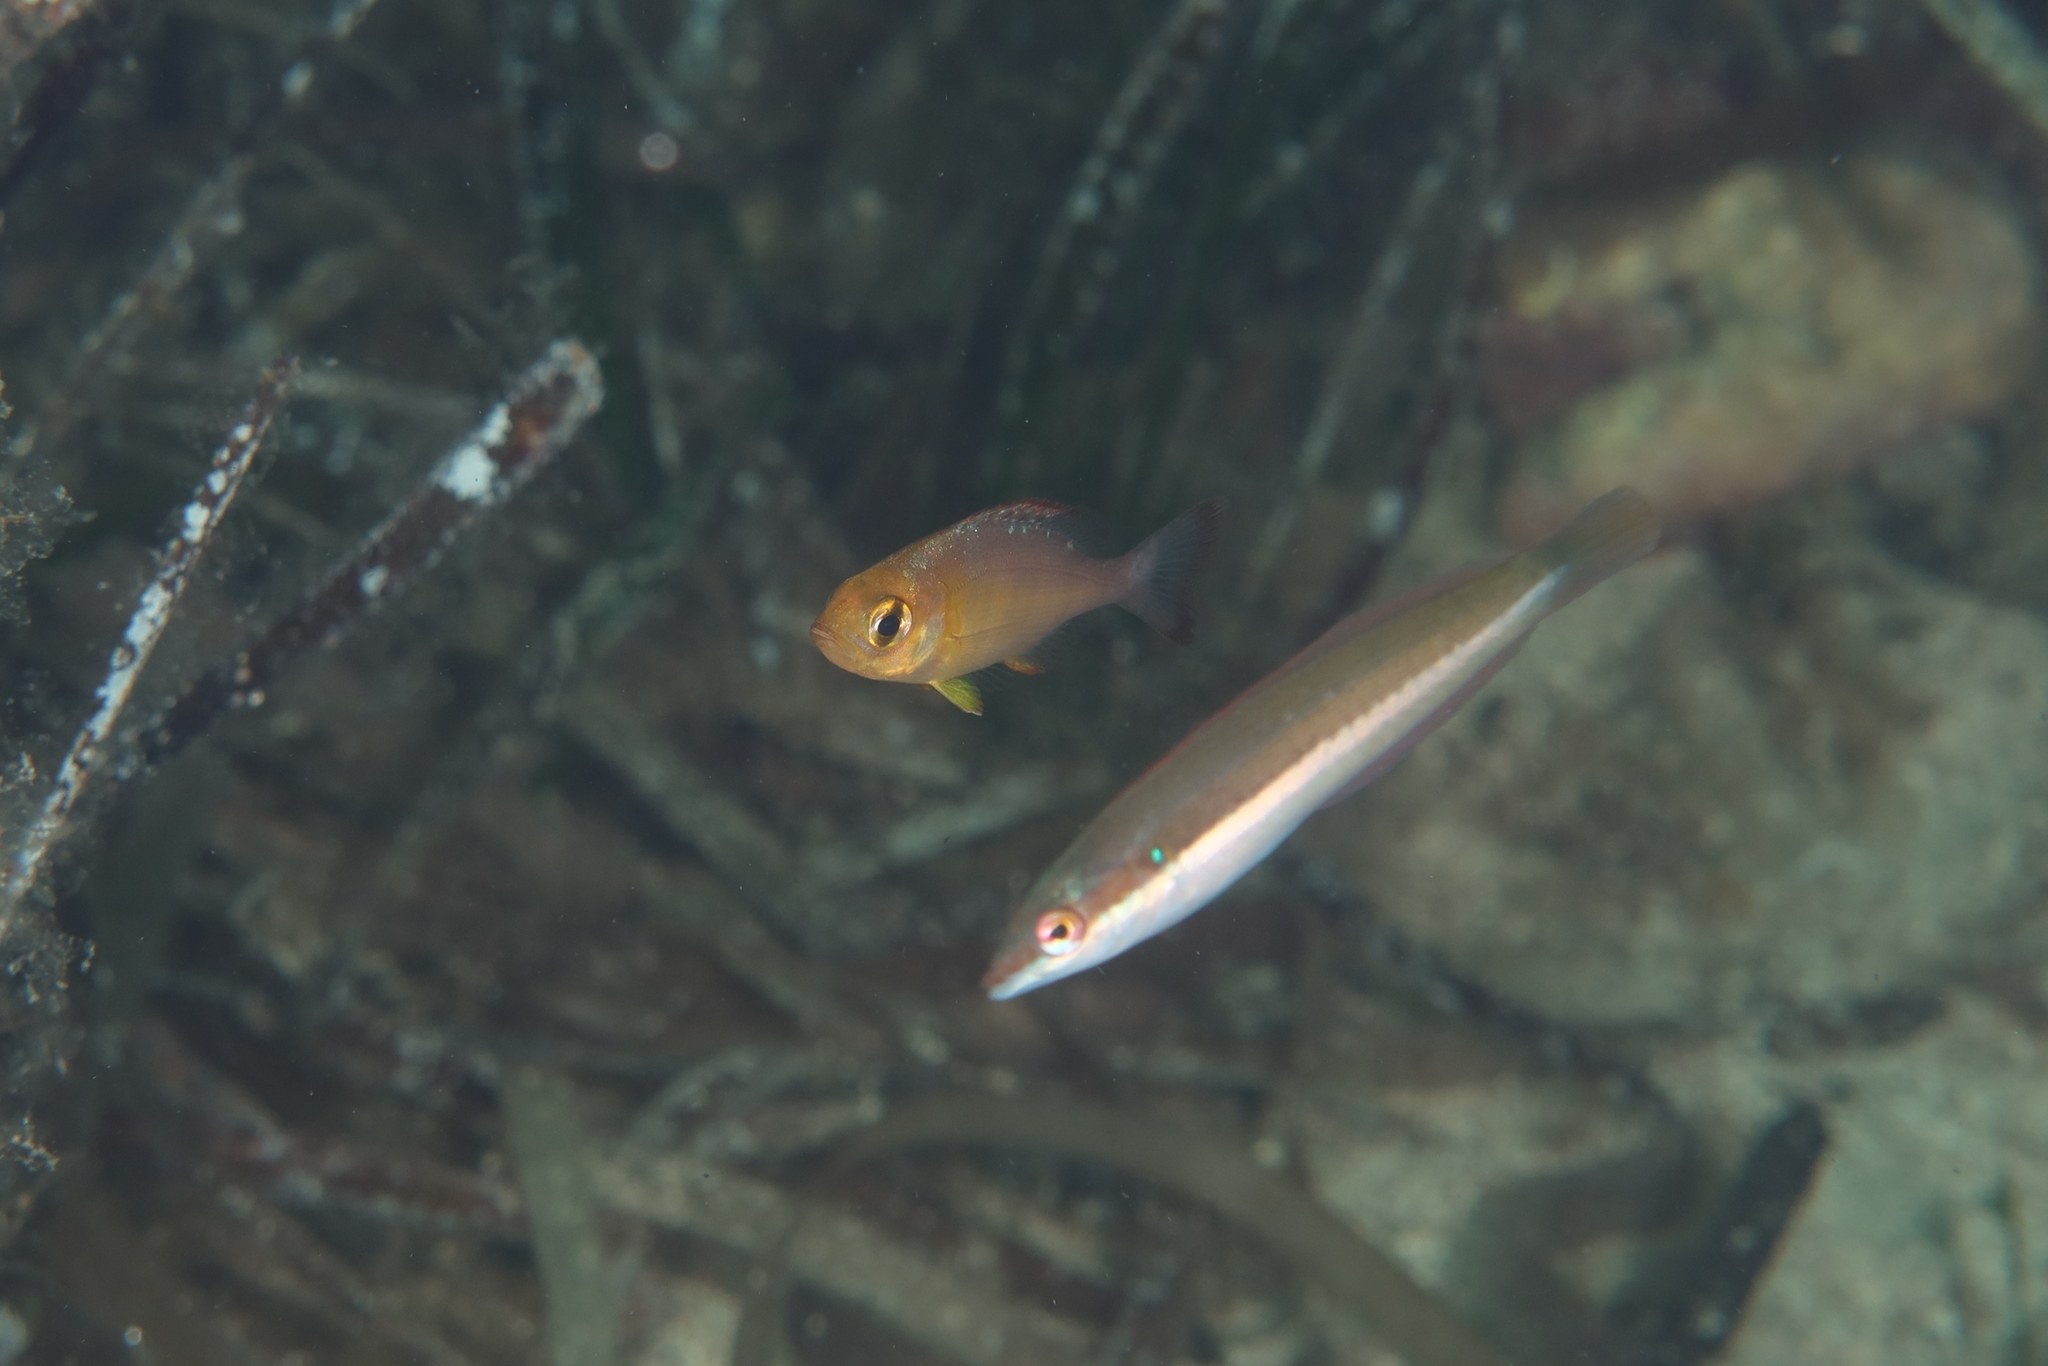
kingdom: Animalia
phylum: Chordata
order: Perciformes
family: Sparidae
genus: Spondyliosoma
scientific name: Spondyliosoma cantharus
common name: Black seabream
